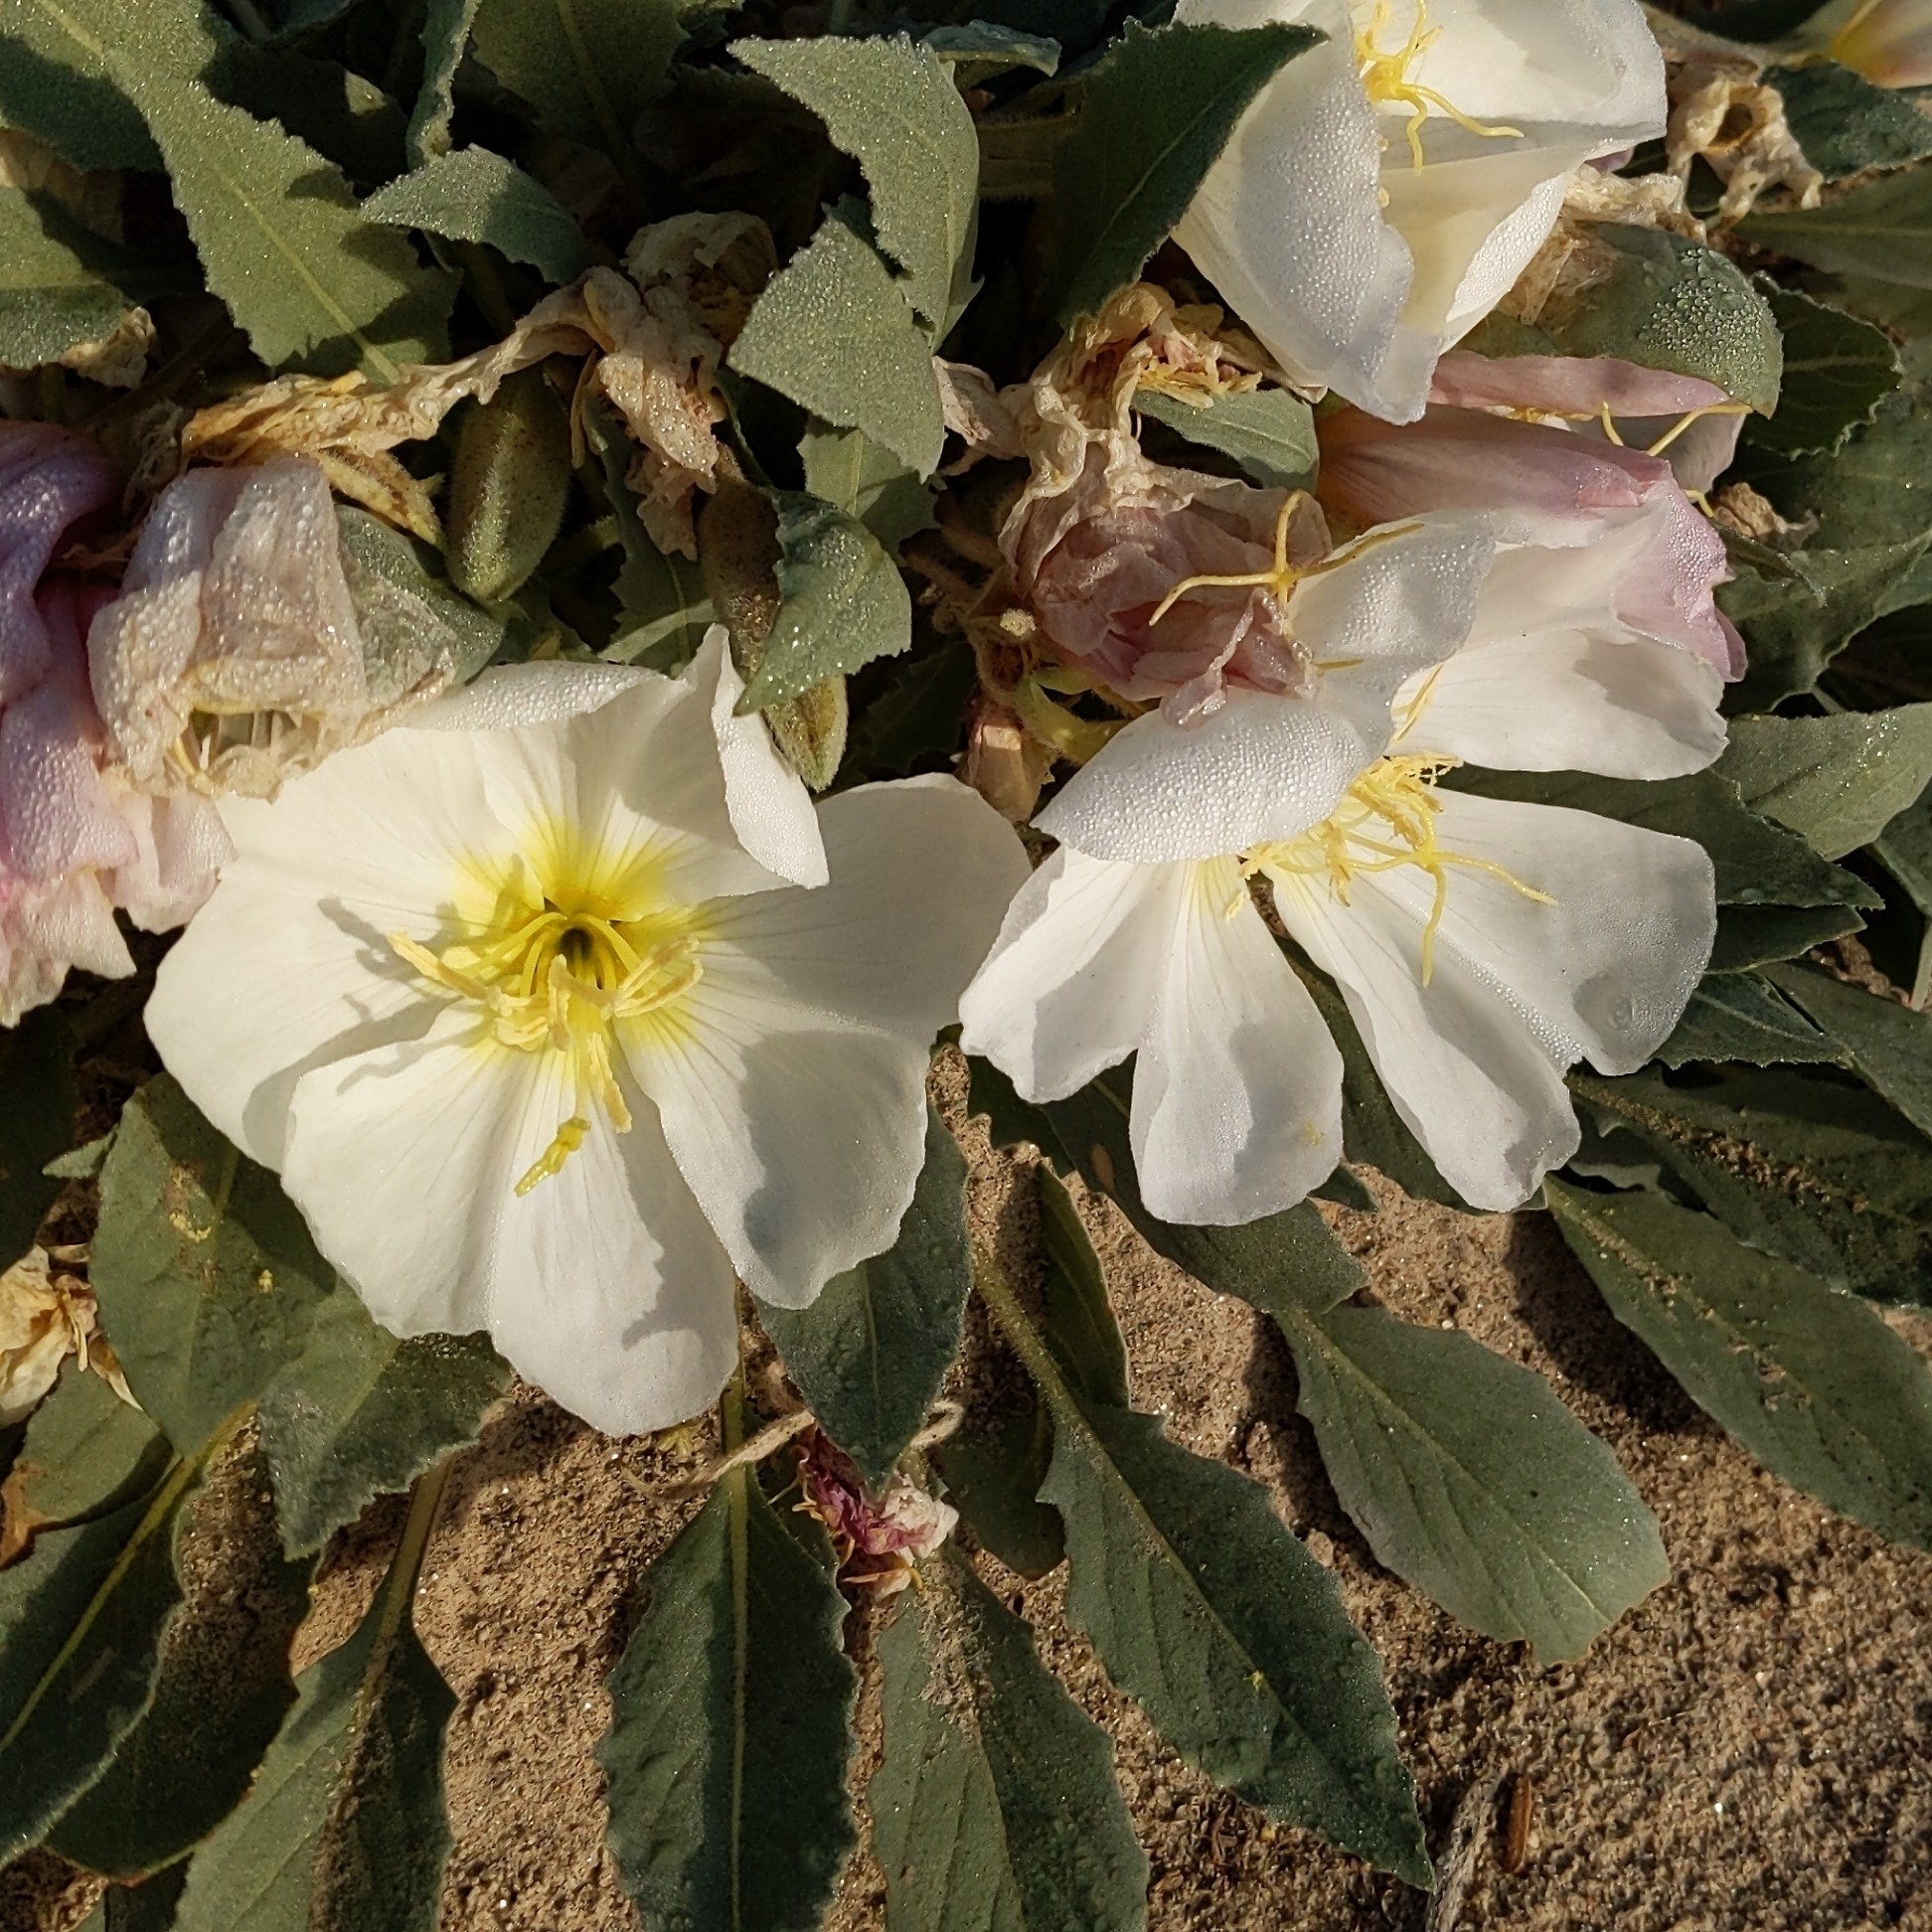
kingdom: Plantae
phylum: Tracheophyta
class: Magnoliopsida
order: Myrtales
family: Onagraceae
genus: Oenothera
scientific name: Oenothera deltoides
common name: Basket evening-primrose
